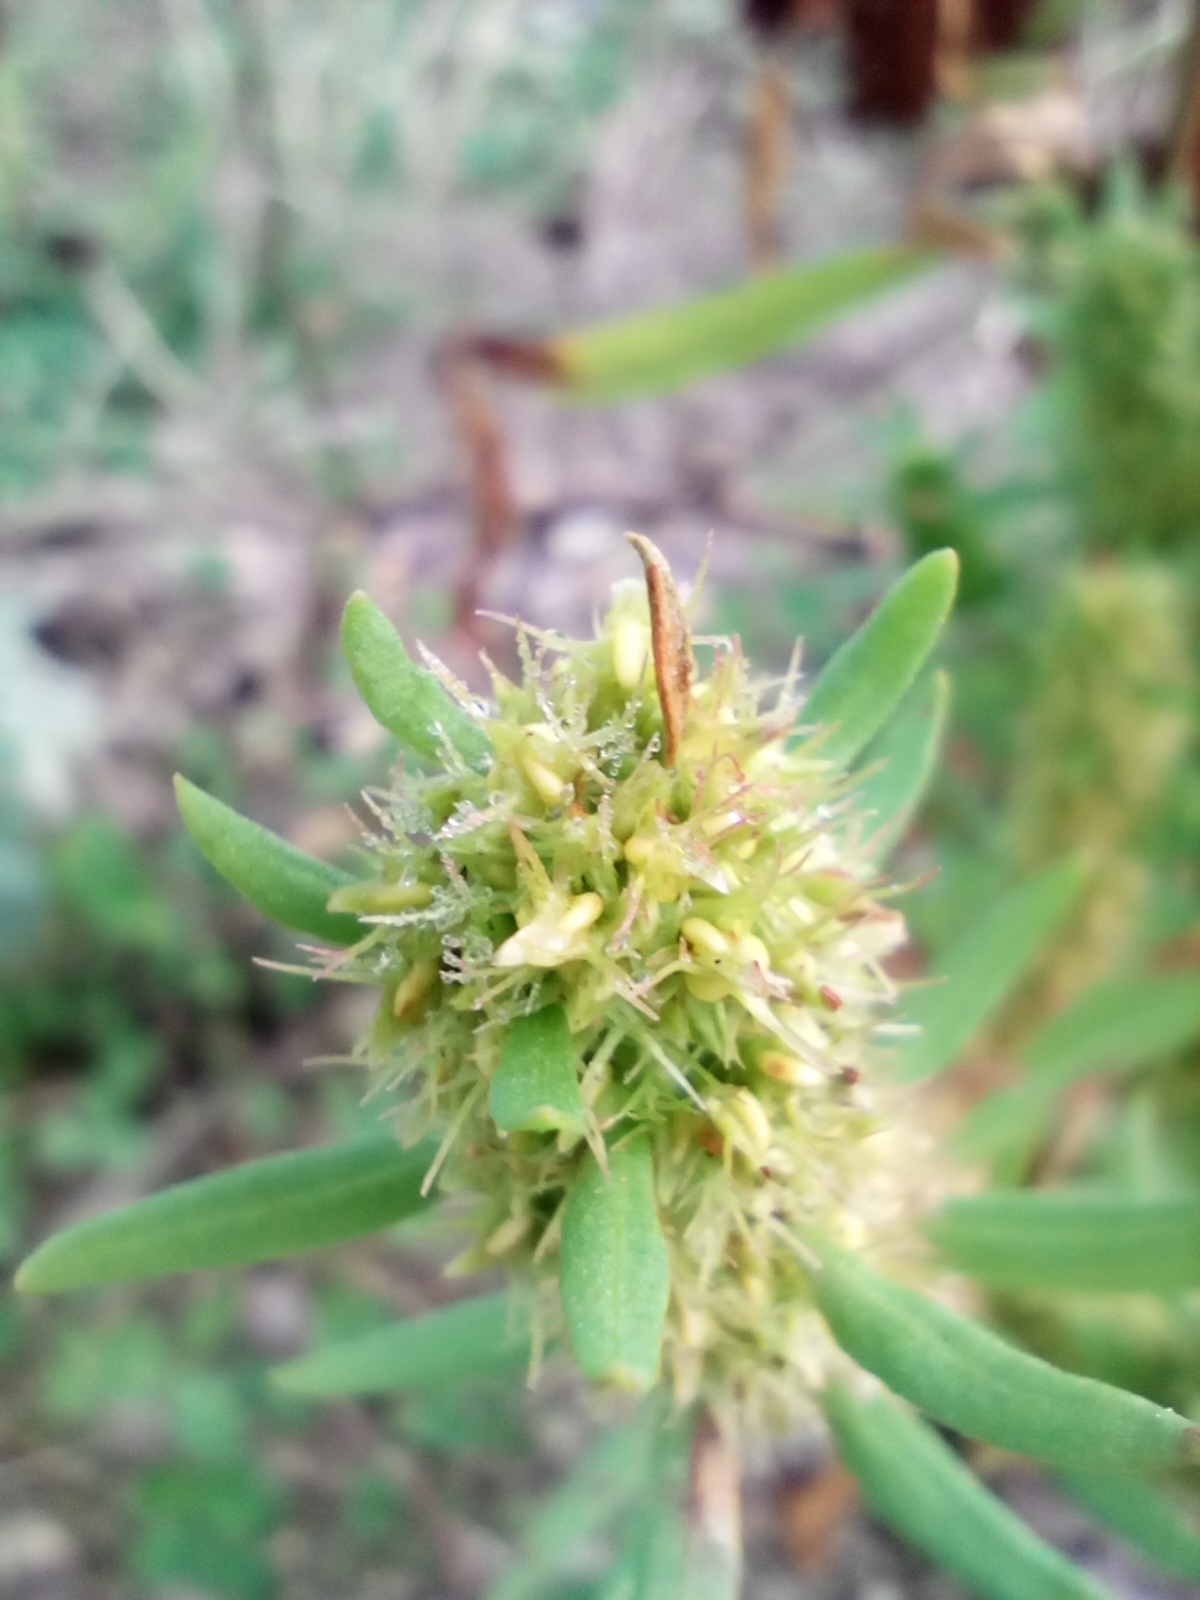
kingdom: Plantae
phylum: Tracheophyta
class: Magnoliopsida
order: Caryophyllales
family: Polygonaceae
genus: Rumex
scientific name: Rumex maritimus
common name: Golden dock
